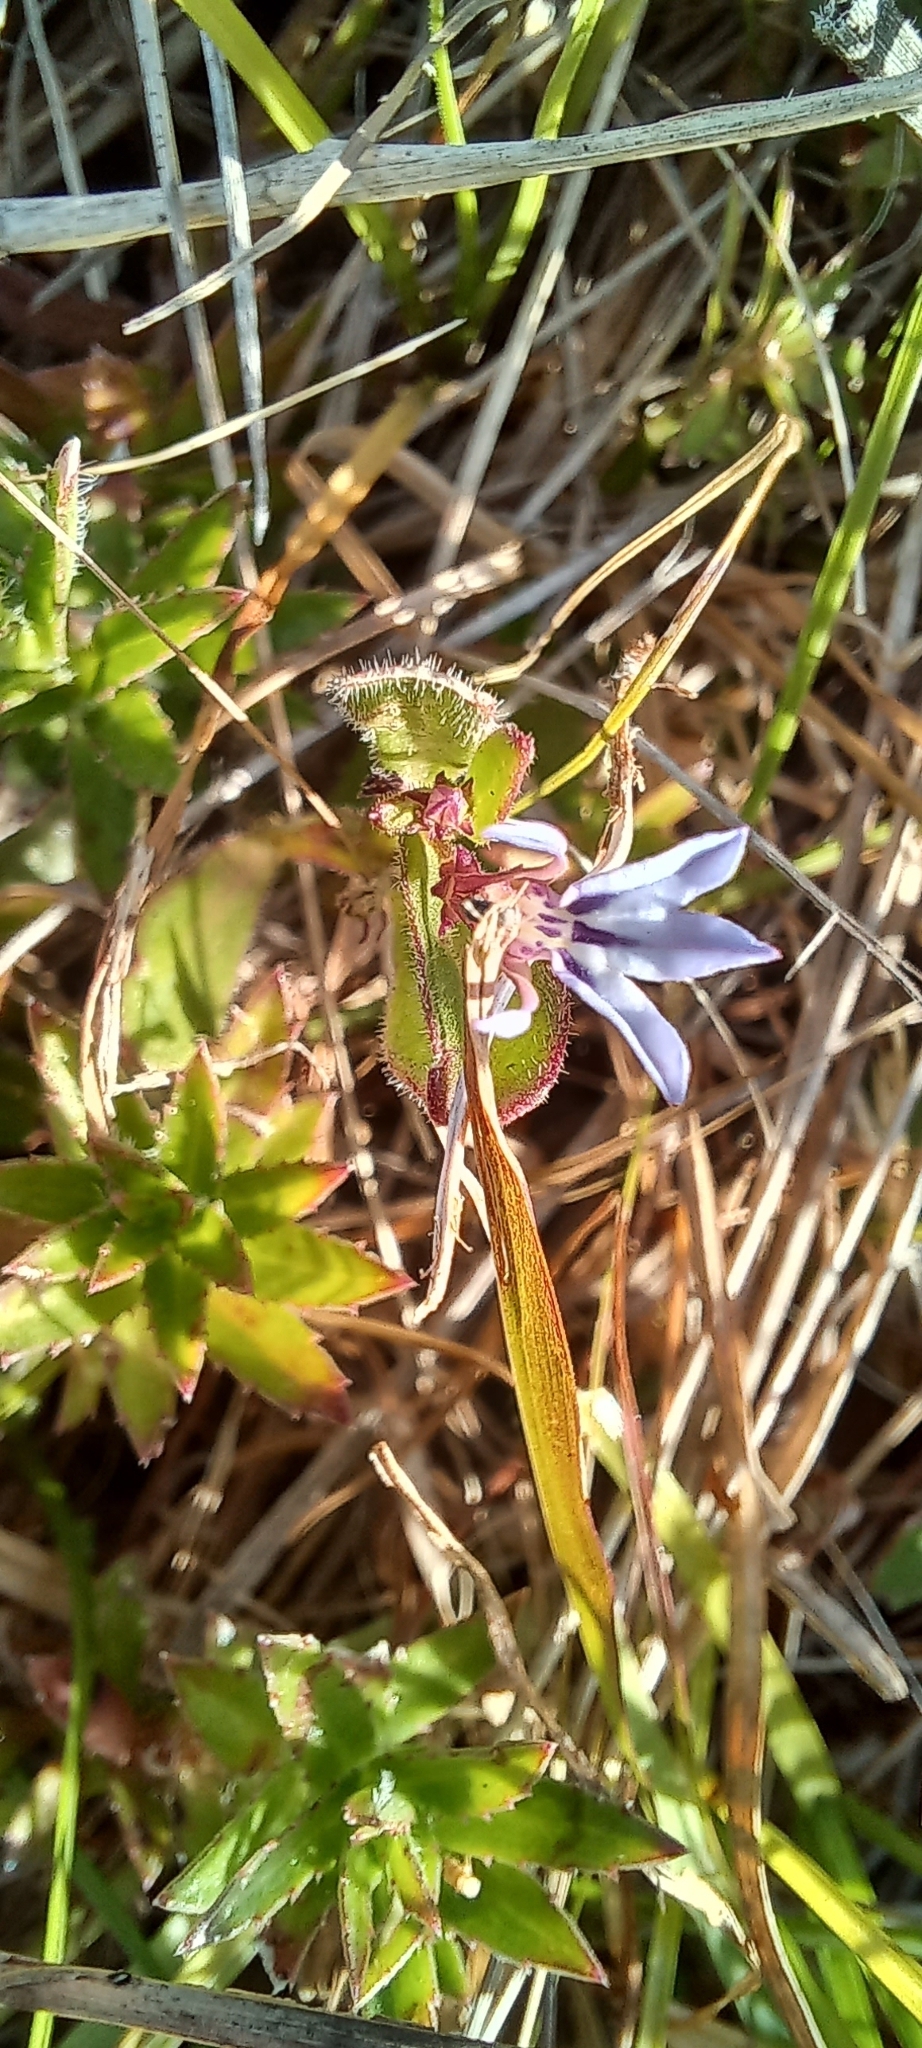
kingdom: Plantae
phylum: Tracheophyta
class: Magnoliopsida
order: Asterales
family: Campanulaceae
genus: Lobelia
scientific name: Lobelia anceps
